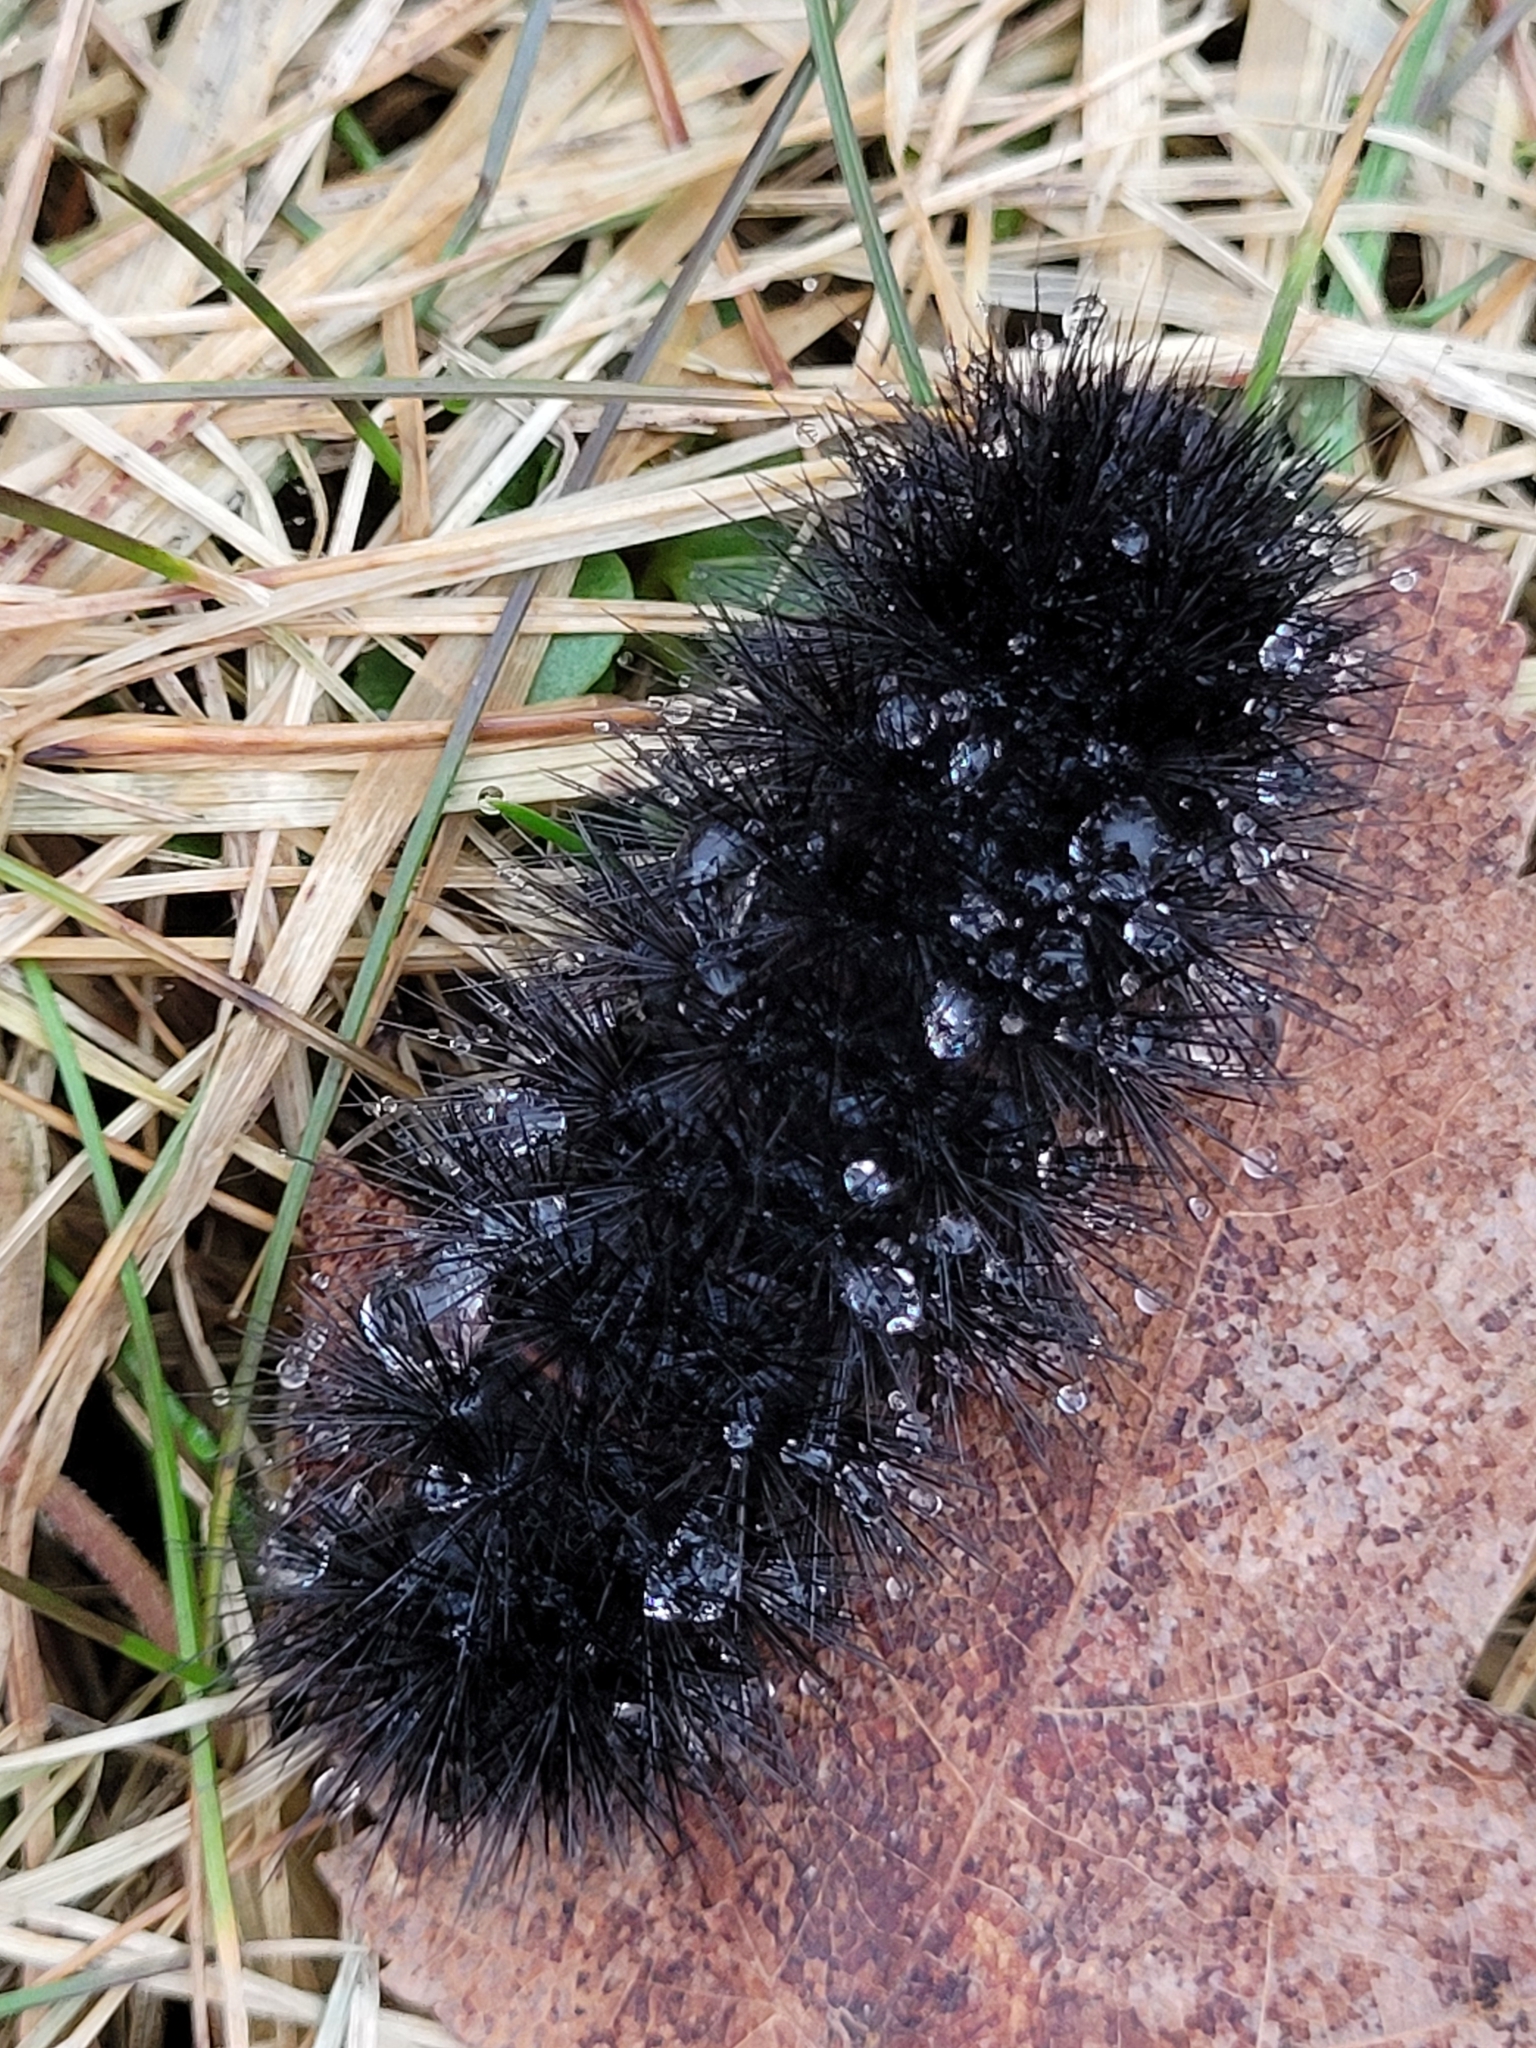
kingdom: Animalia
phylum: Arthropoda
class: Insecta
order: Lepidoptera
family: Erebidae
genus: Hypercompe
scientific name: Hypercompe scribonia
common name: Giant leopard moth
